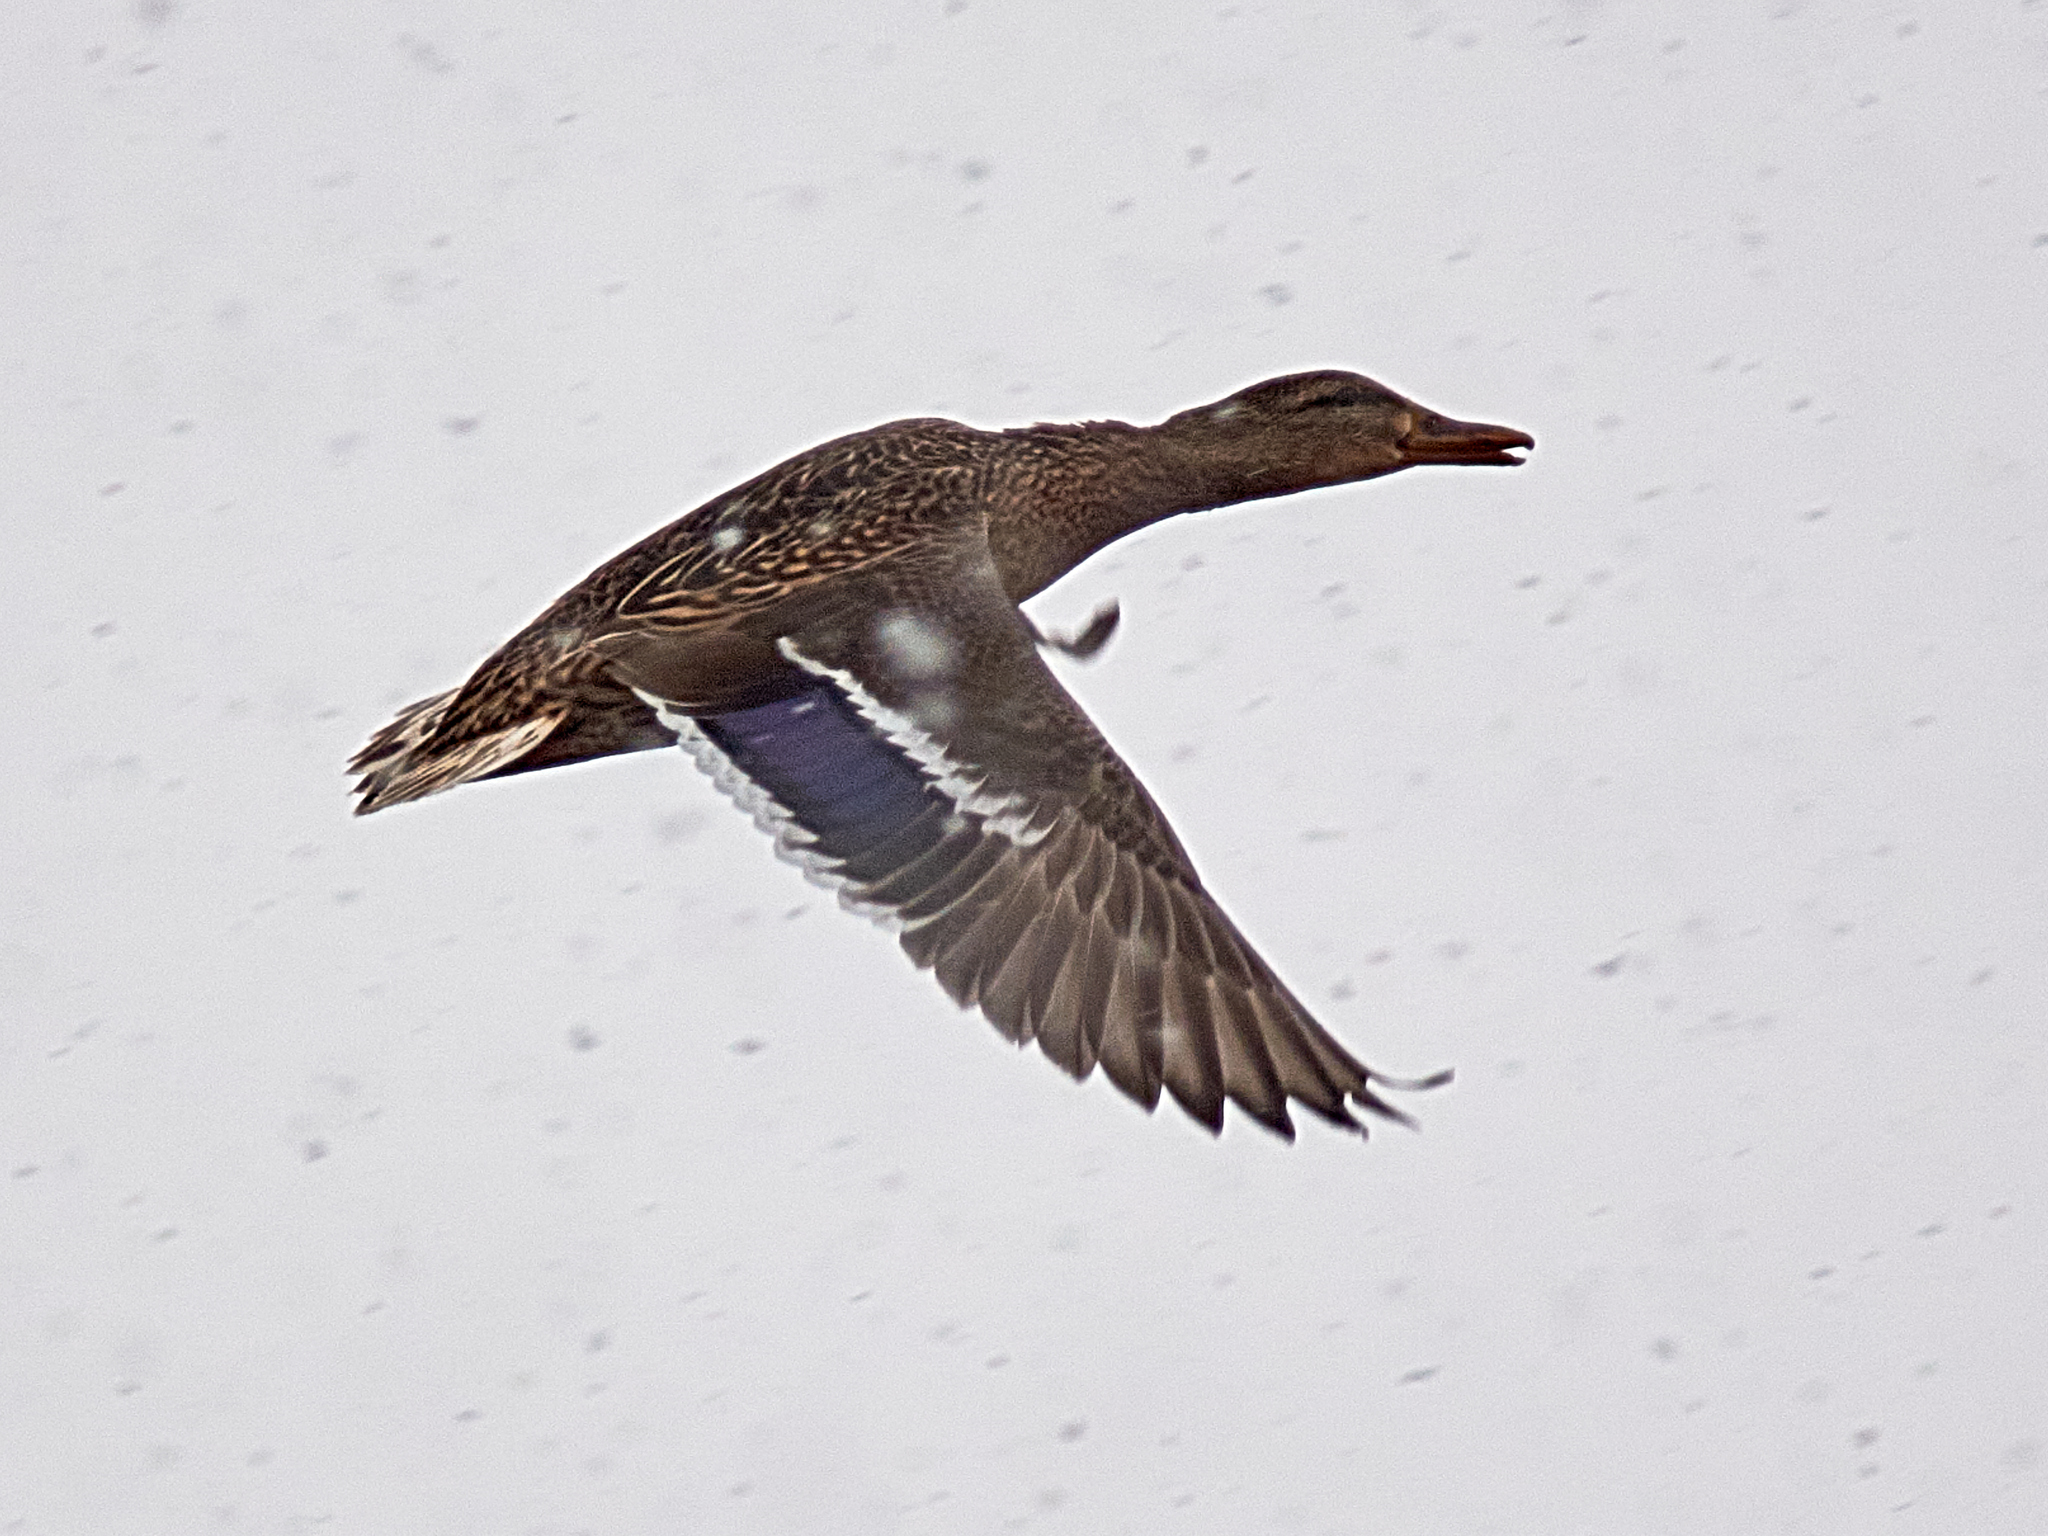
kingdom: Animalia
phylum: Chordata
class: Aves
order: Anseriformes
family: Anatidae
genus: Anas
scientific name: Anas platyrhynchos
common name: Mallard
